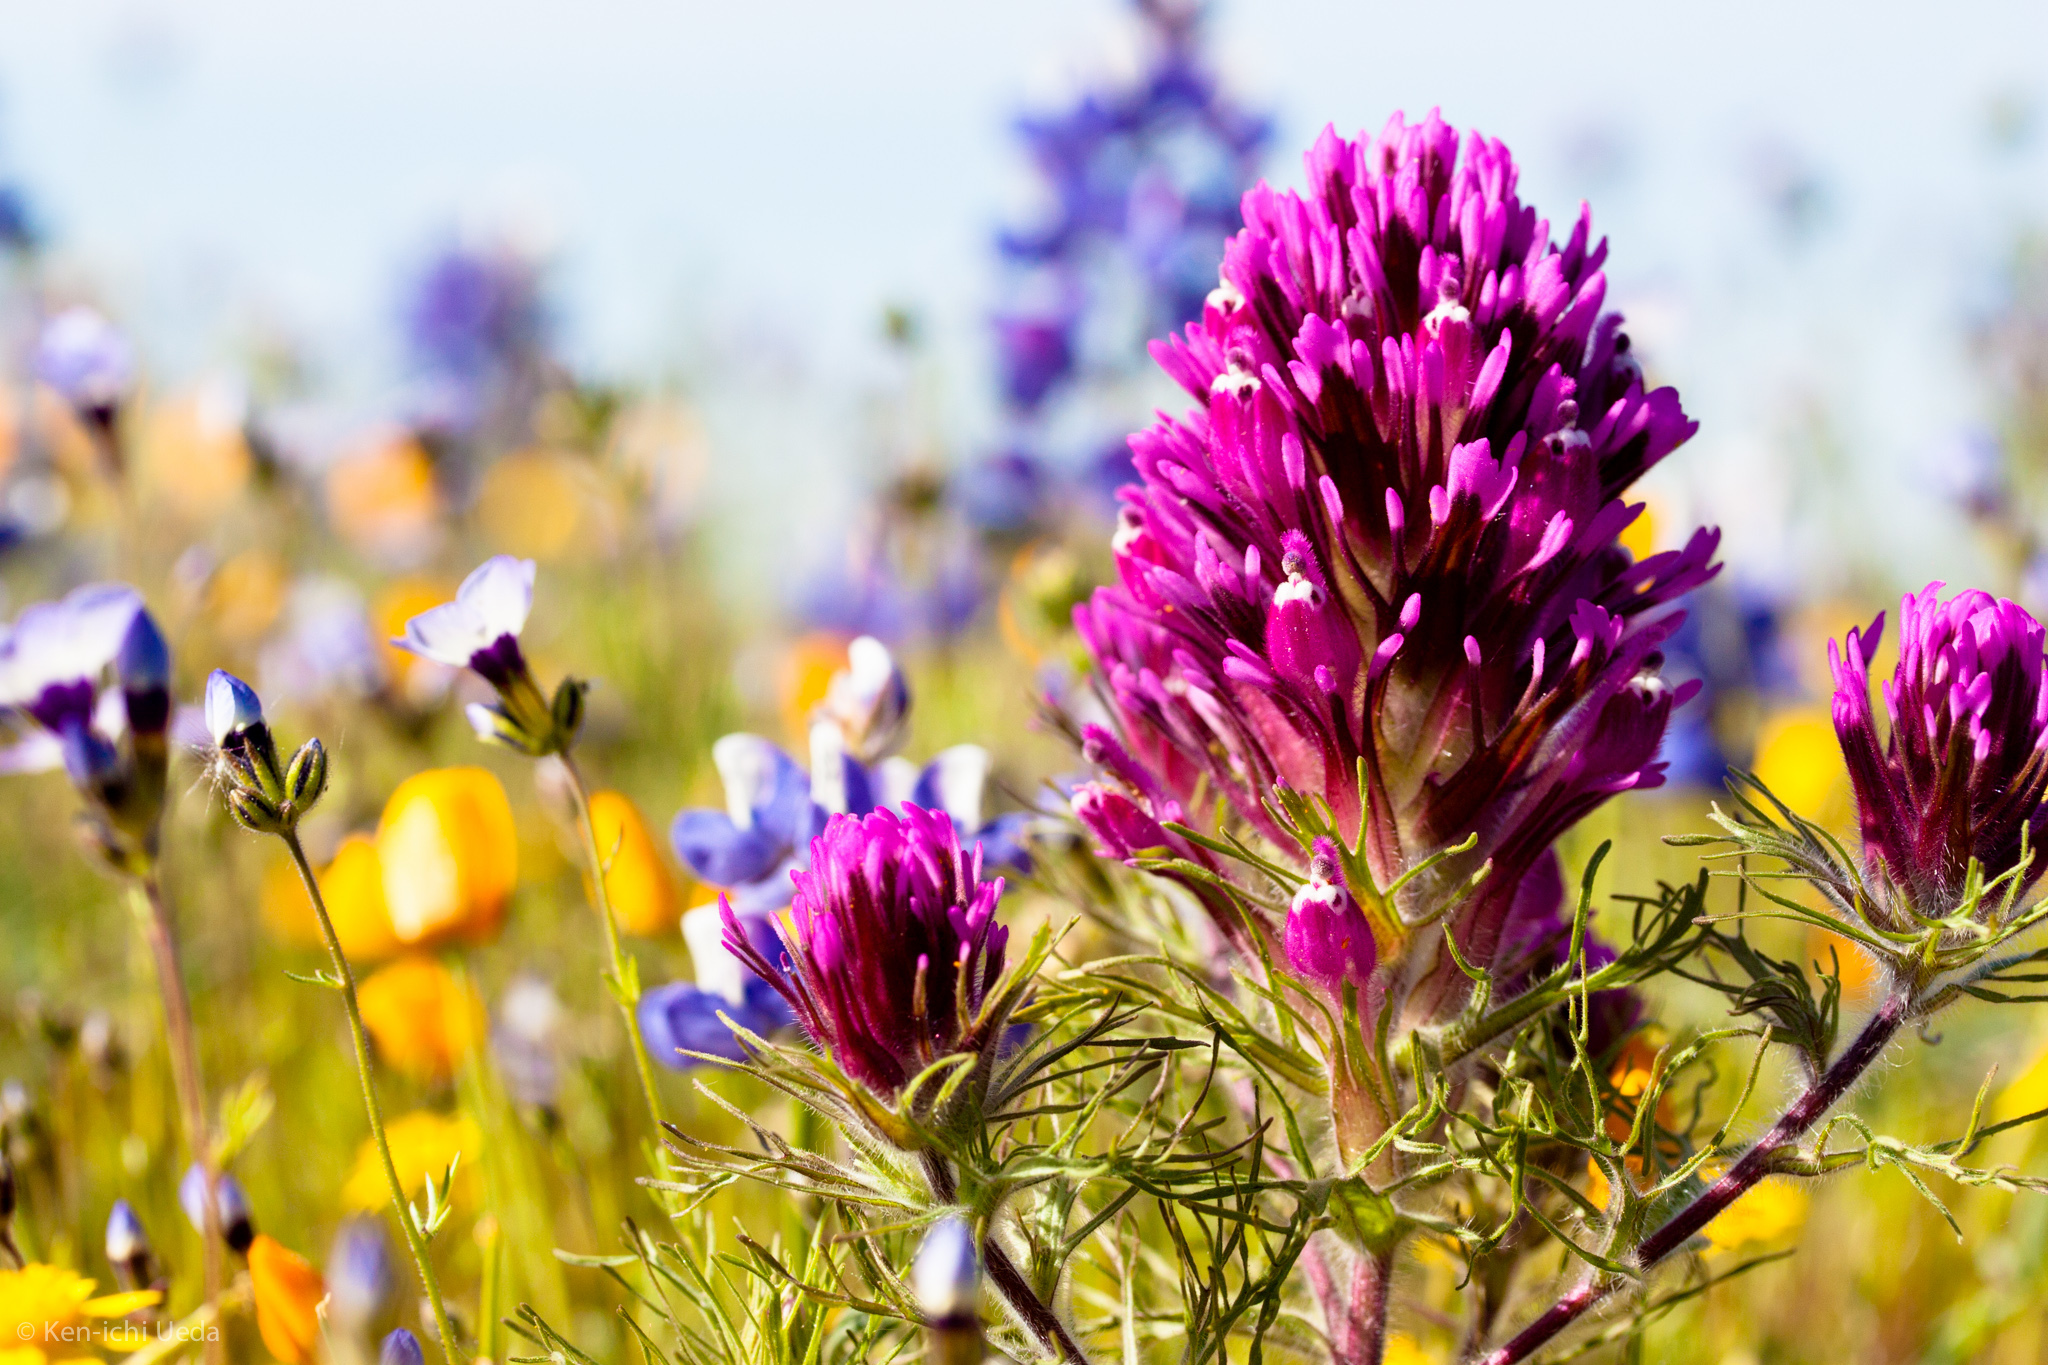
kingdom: Plantae
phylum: Tracheophyta
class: Magnoliopsida
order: Lamiales
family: Orobanchaceae
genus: Castilleja
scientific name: Castilleja exserta
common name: Purple owl-clover
